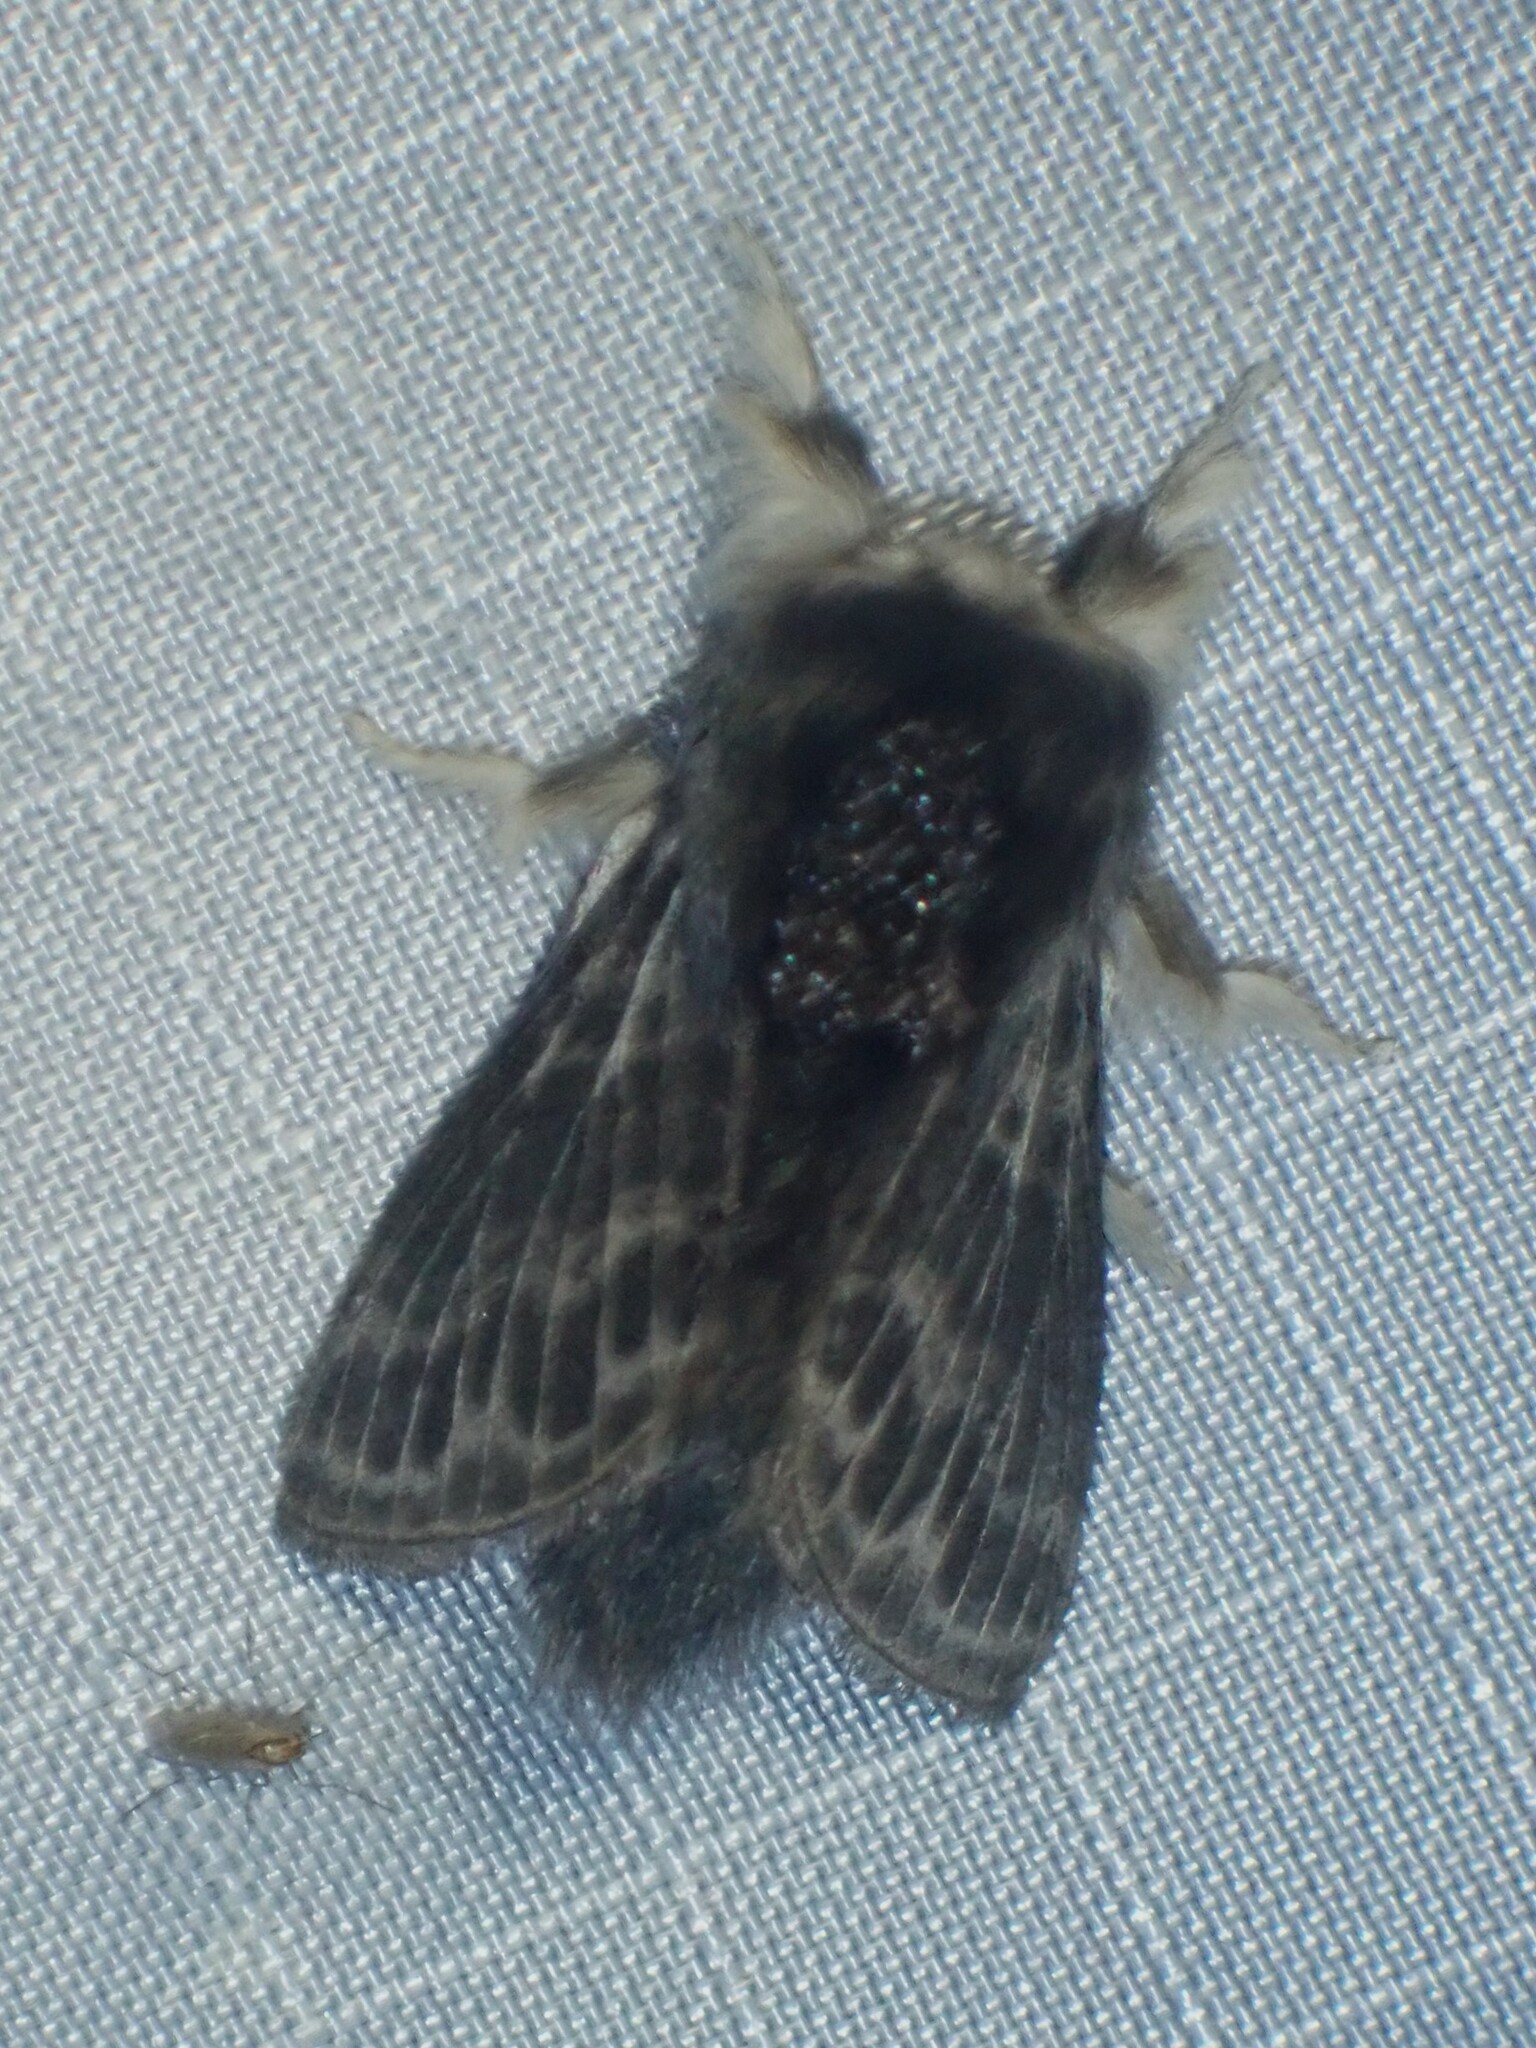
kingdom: Animalia
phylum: Arthropoda
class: Insecta
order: Lepidoptera
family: Lasiocampidae
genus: Tolype
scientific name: Tolype laricis
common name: Larch tolype moth
